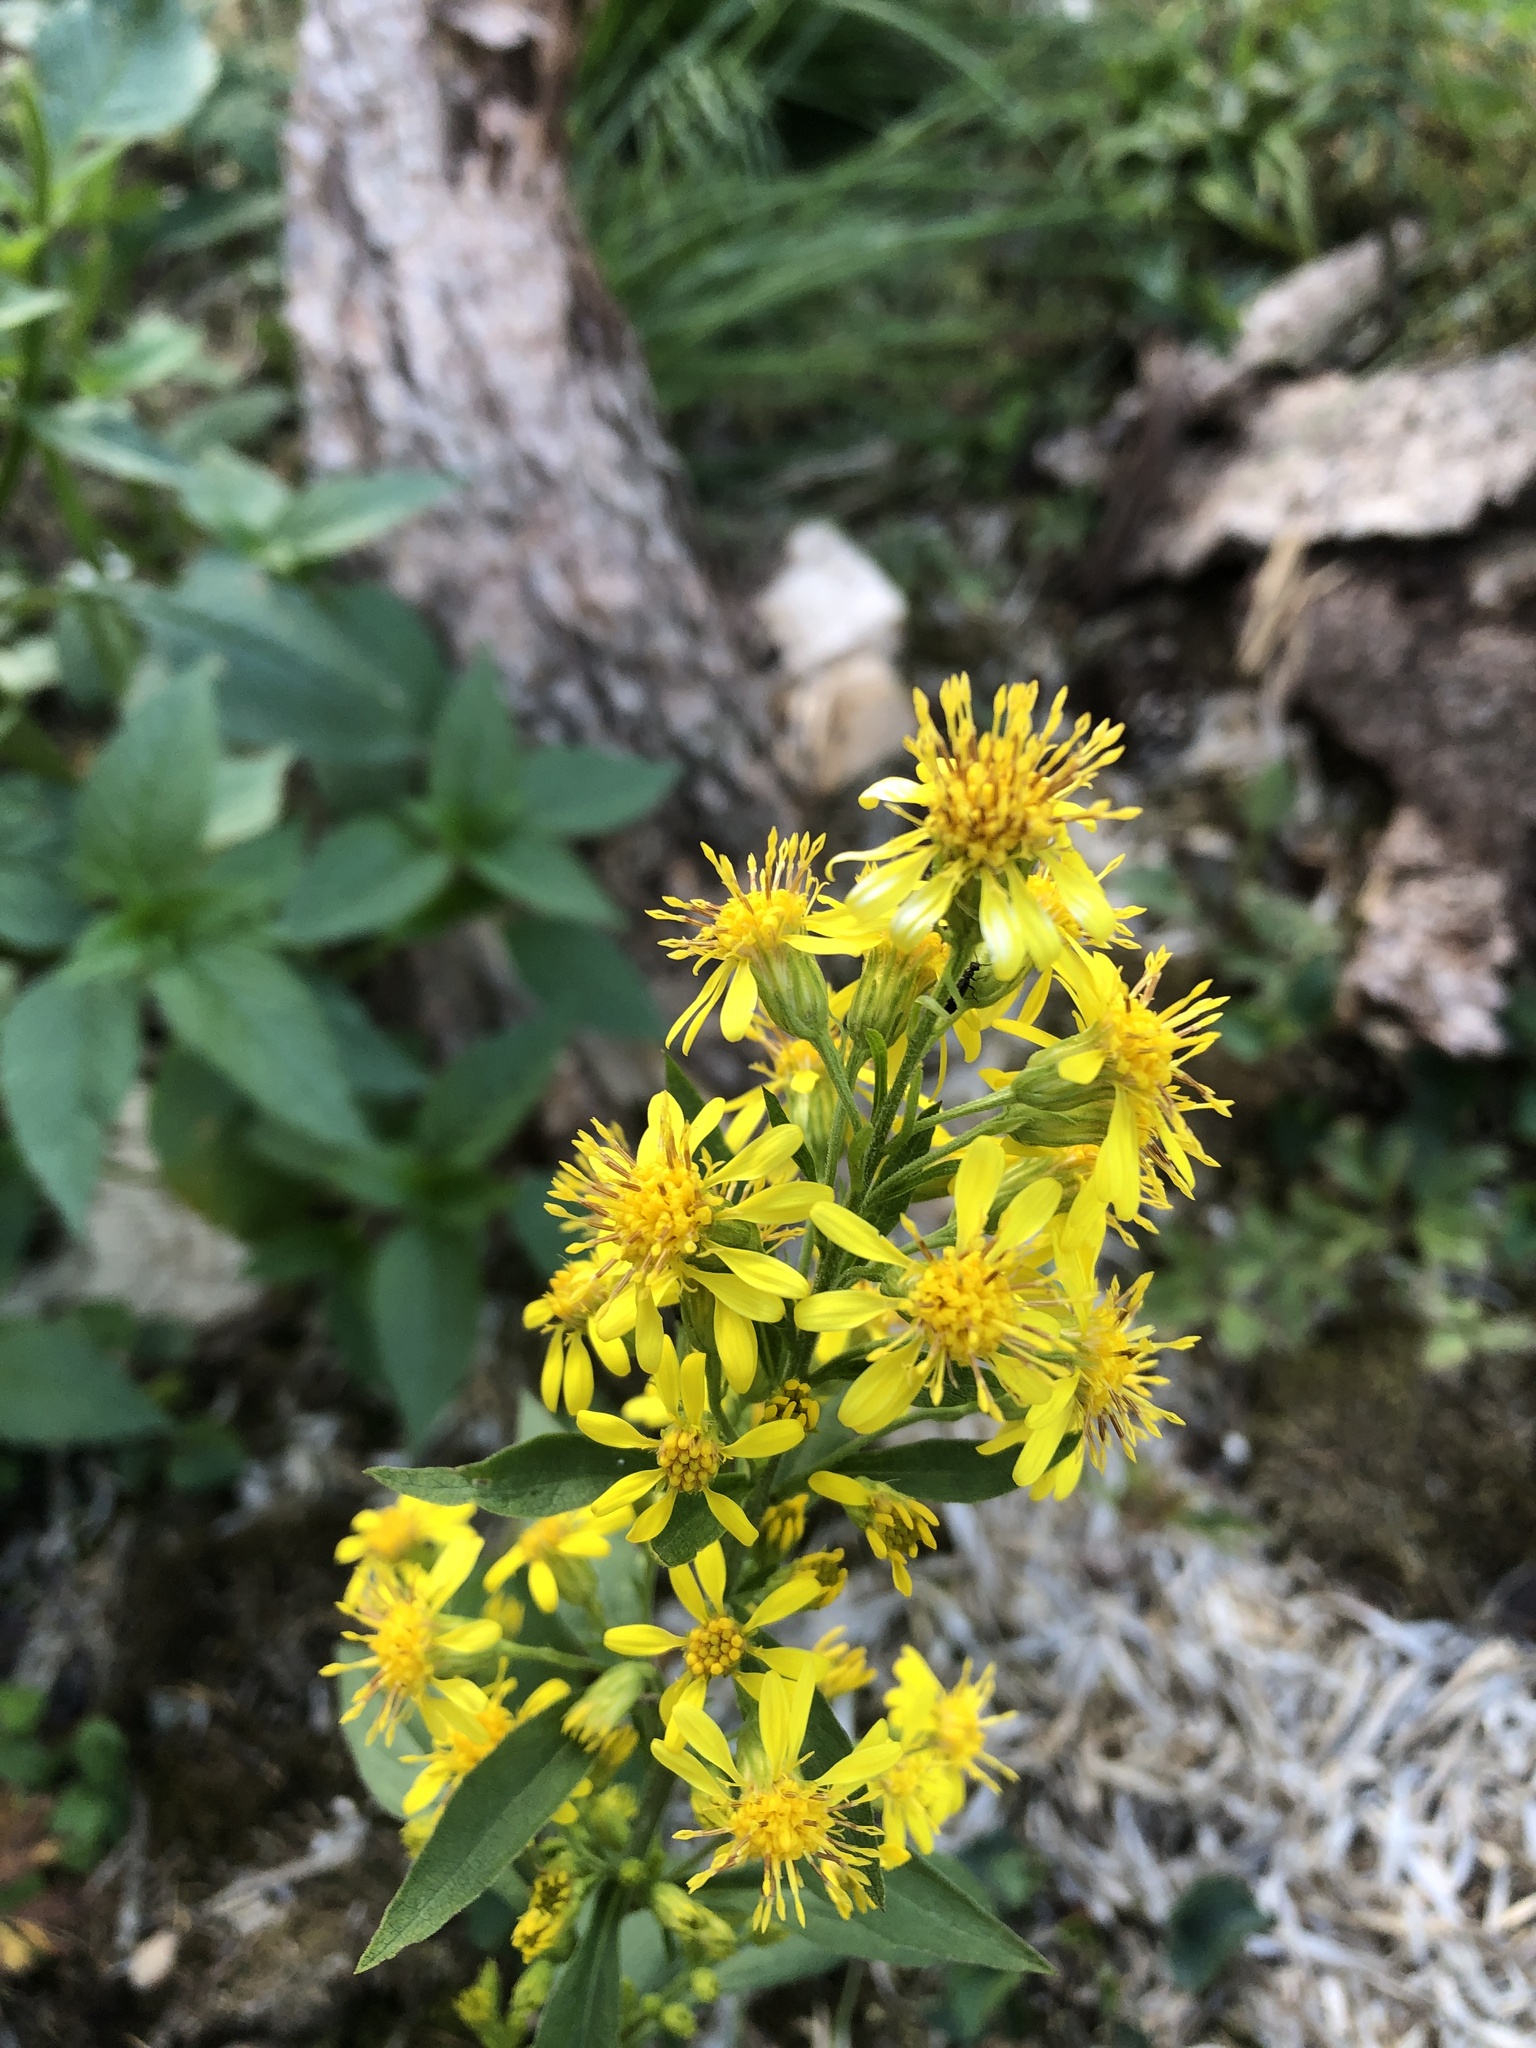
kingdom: Plantae
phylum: Tracheophyta
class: Magnoliopsida
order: Asterales
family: Asteraceae
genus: Solidago
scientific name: Solidago virgaurea
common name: Goldenrod
